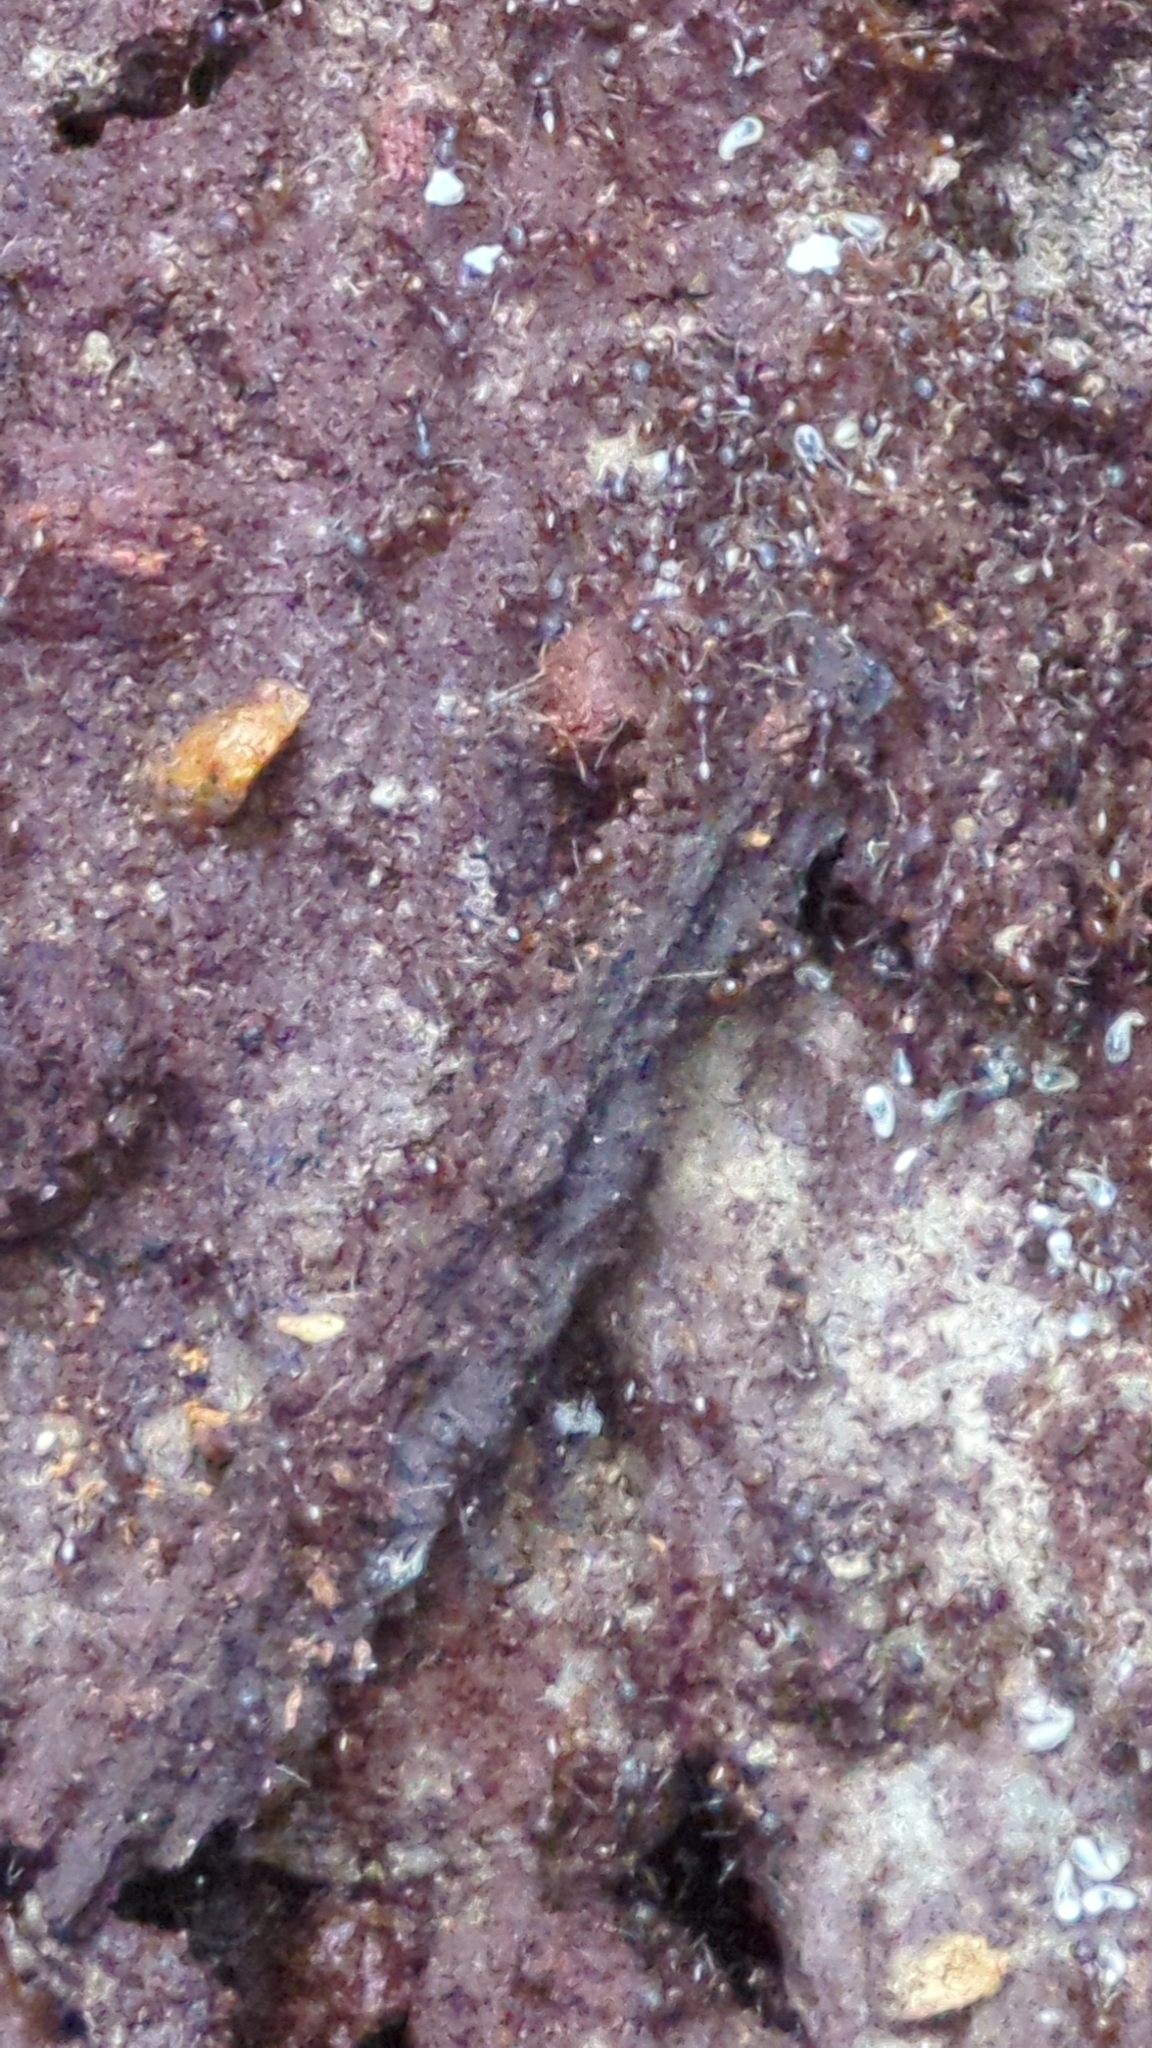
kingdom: Animalia
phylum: Arthropoda
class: Insecta
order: Hymenoptera
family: Formicidae
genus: Aphaenogaster
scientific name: Aphaenogaster fulva
